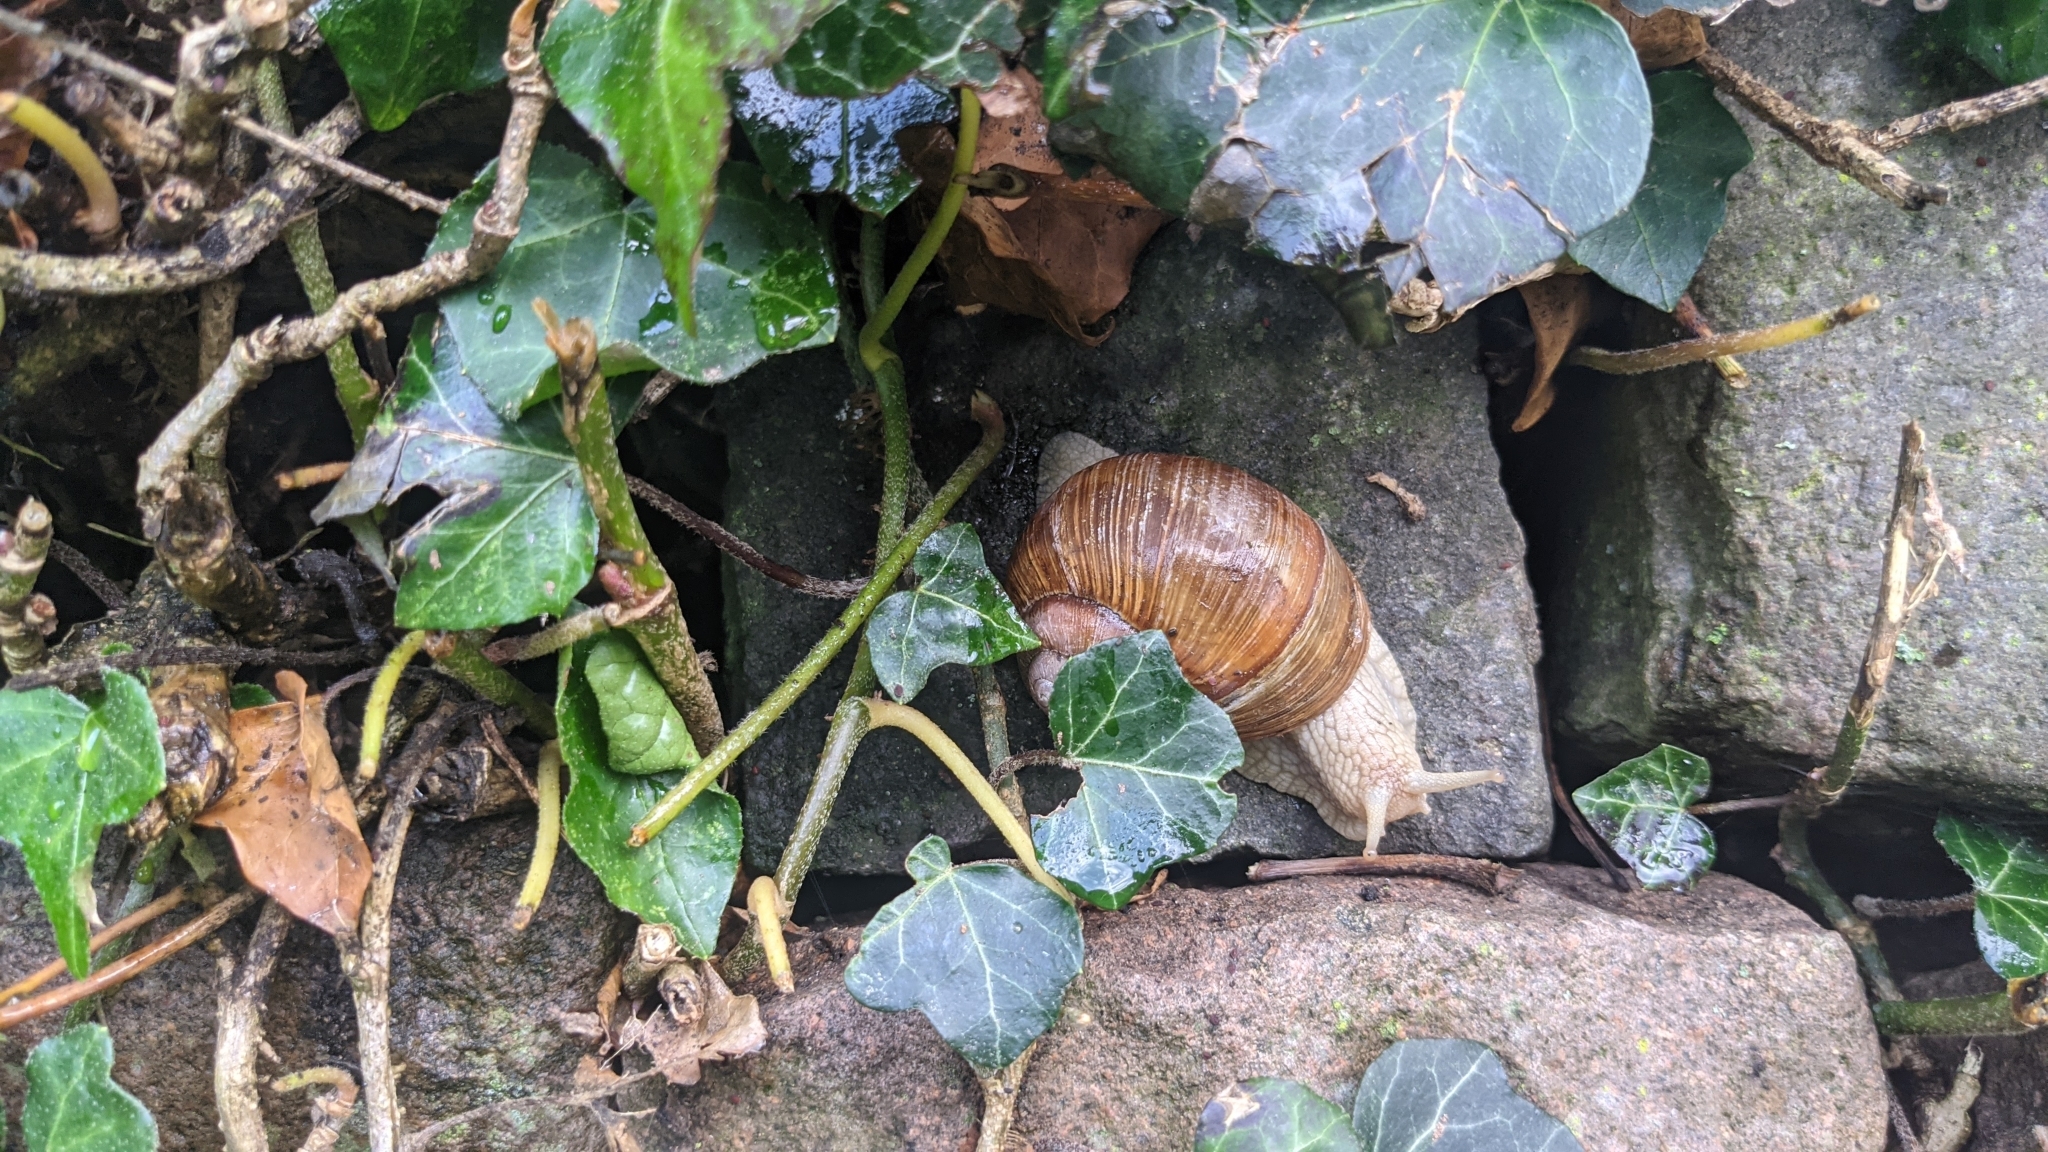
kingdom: Animalia
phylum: Mollusca
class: Gastropoda
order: Stylommatophora
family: Helicidae
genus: Helix
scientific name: Helix pomatia
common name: Roman snail
